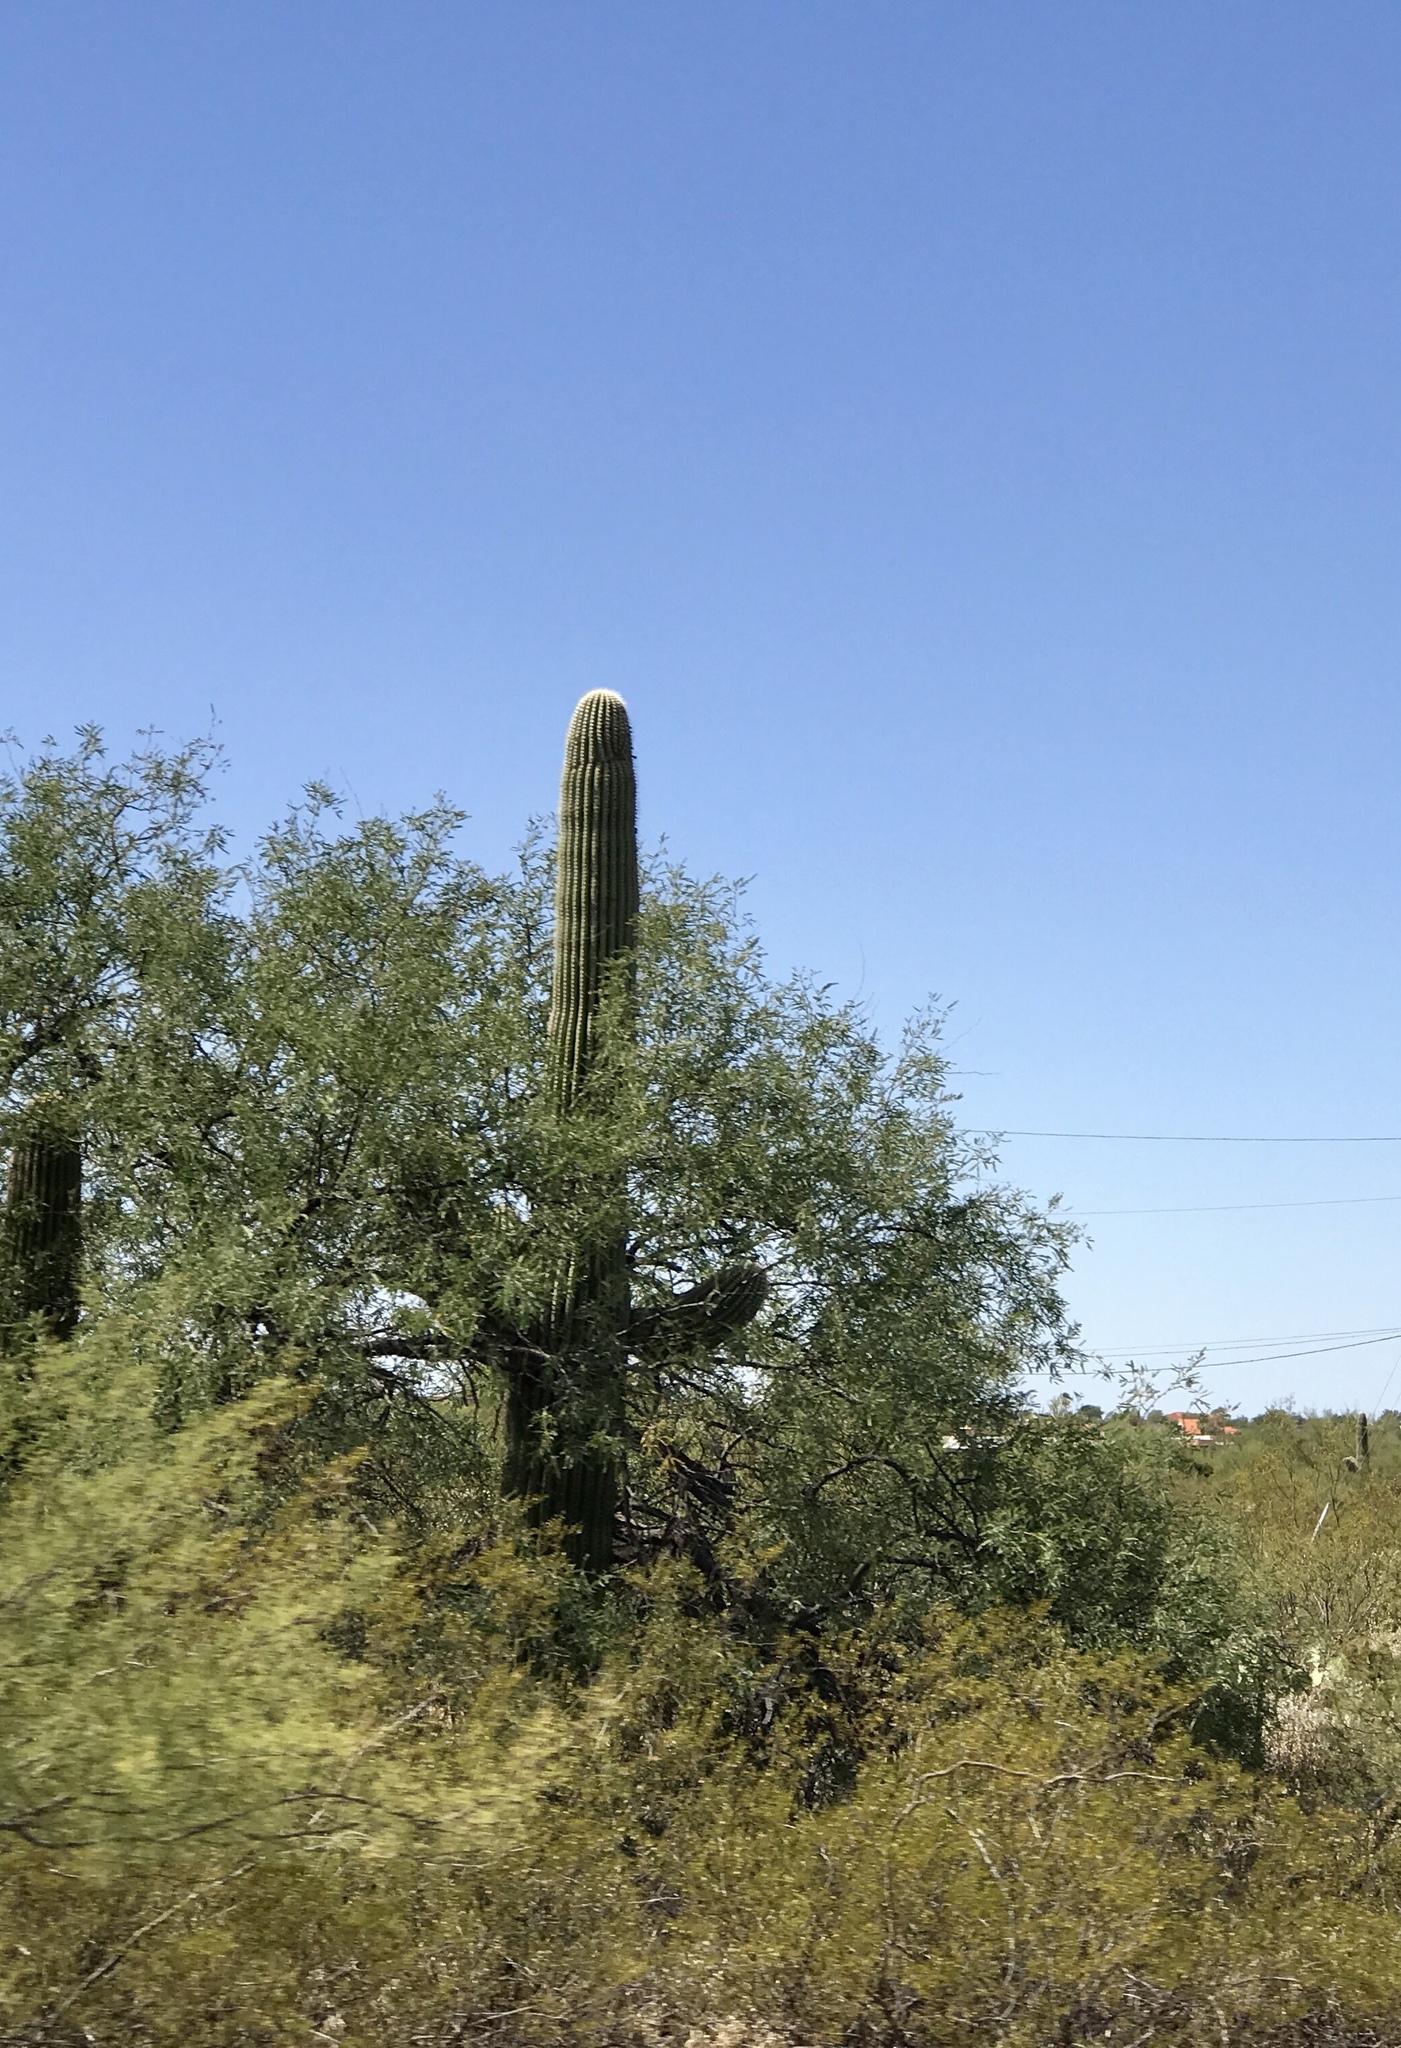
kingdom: Plantae
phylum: Tracheophyta
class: Magnoliopsida
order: Caryophyllales
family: Cactaceae
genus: Carnegiea
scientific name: Carnegiea gigantea
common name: Saguaro
